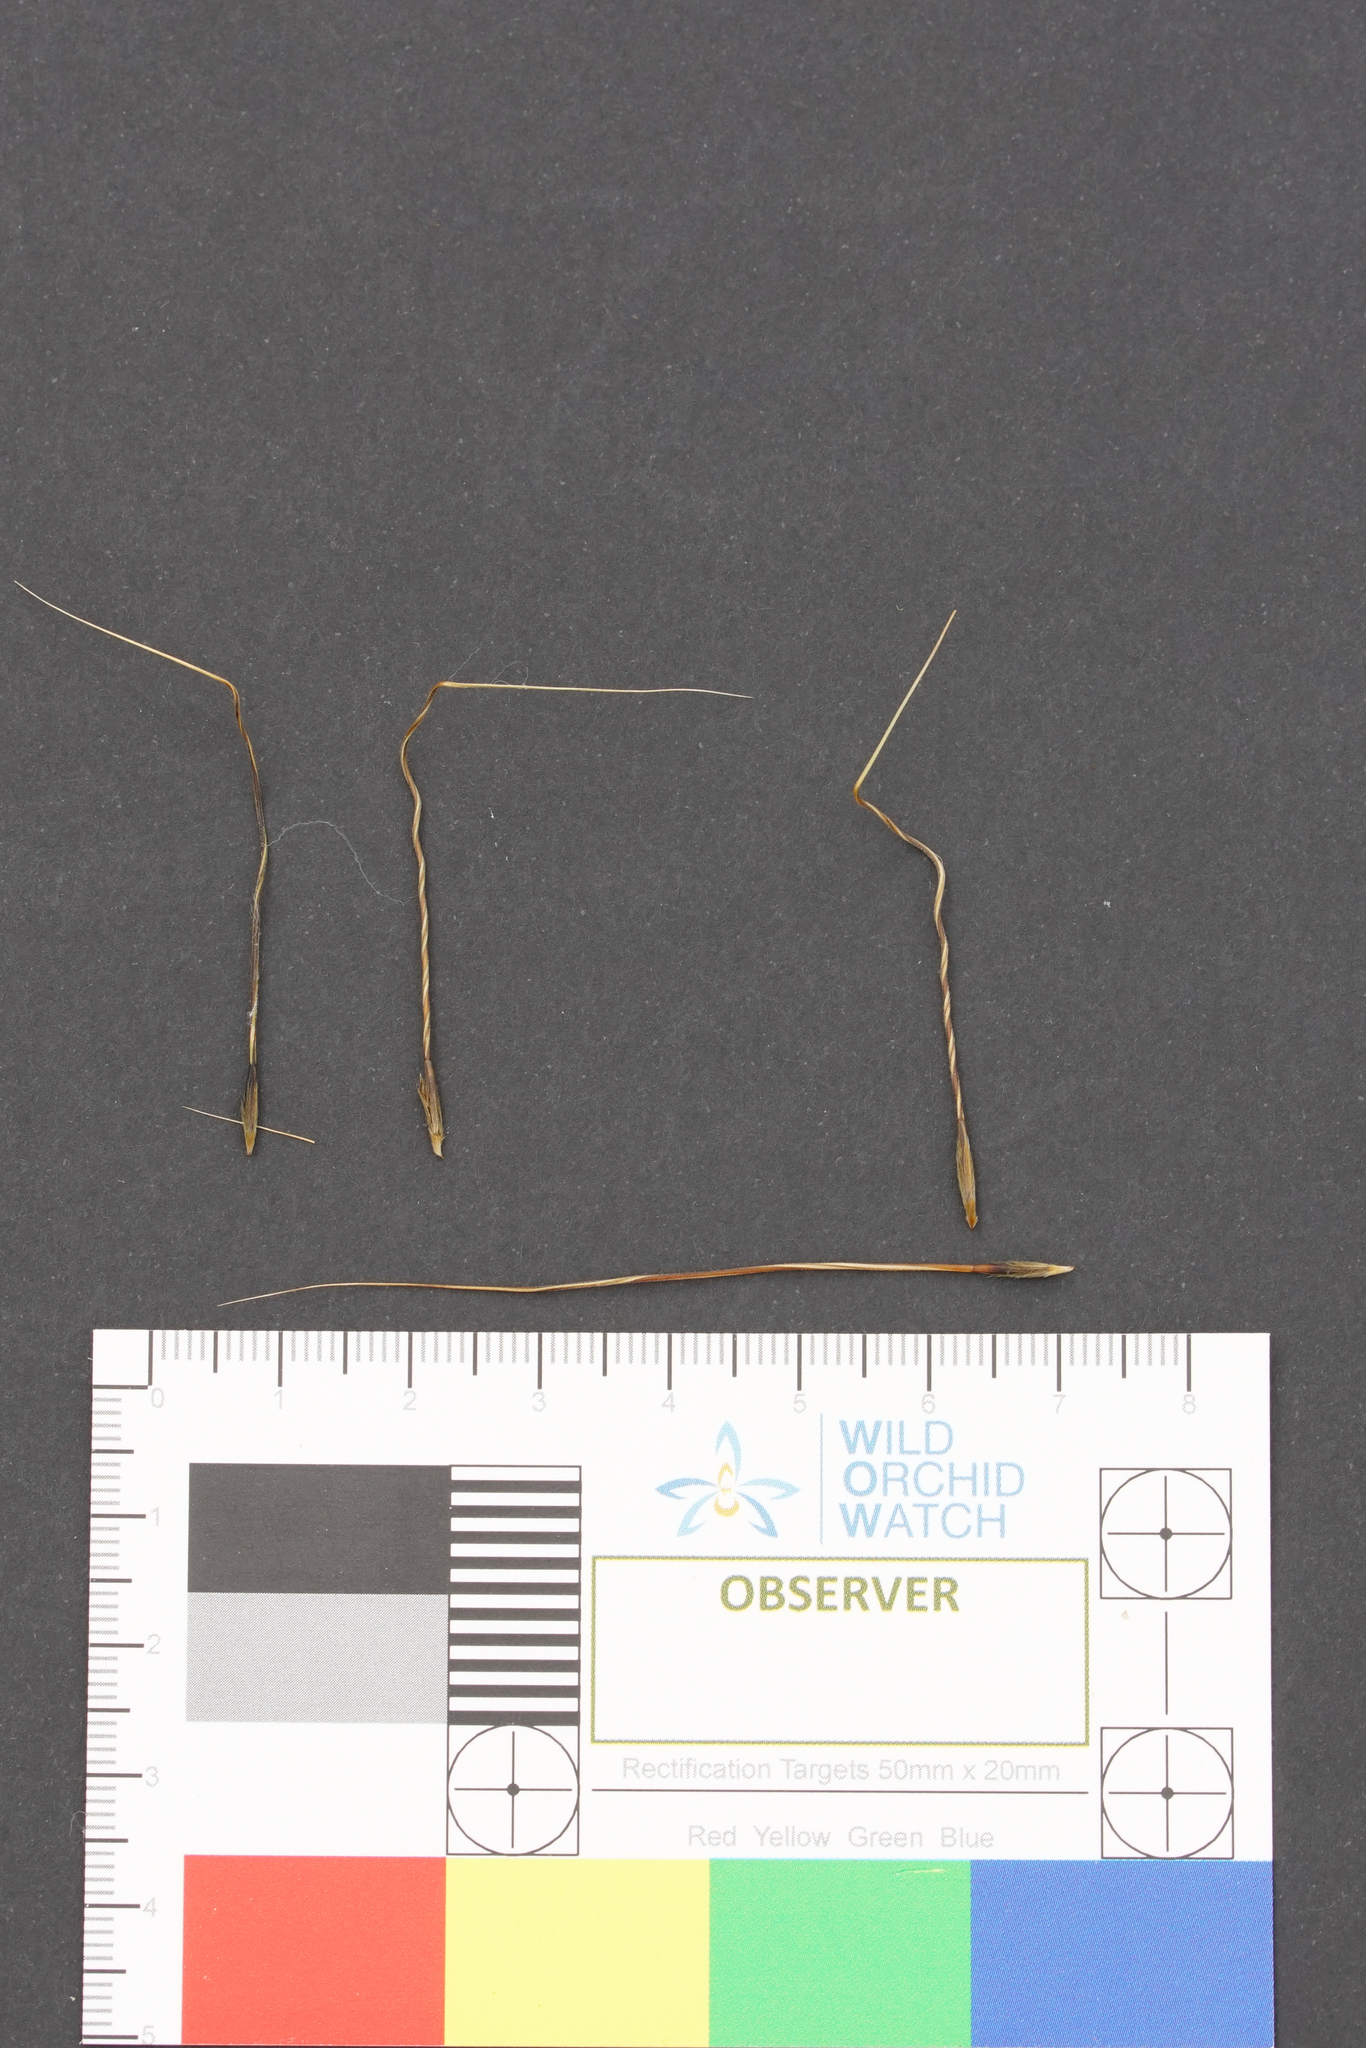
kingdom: Plantae
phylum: Tracheophyta
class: Liliopsida
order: Poales
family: Poaceae
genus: Austrostipa
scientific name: Austrostipa semibarbata
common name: Fibrous spear grass
